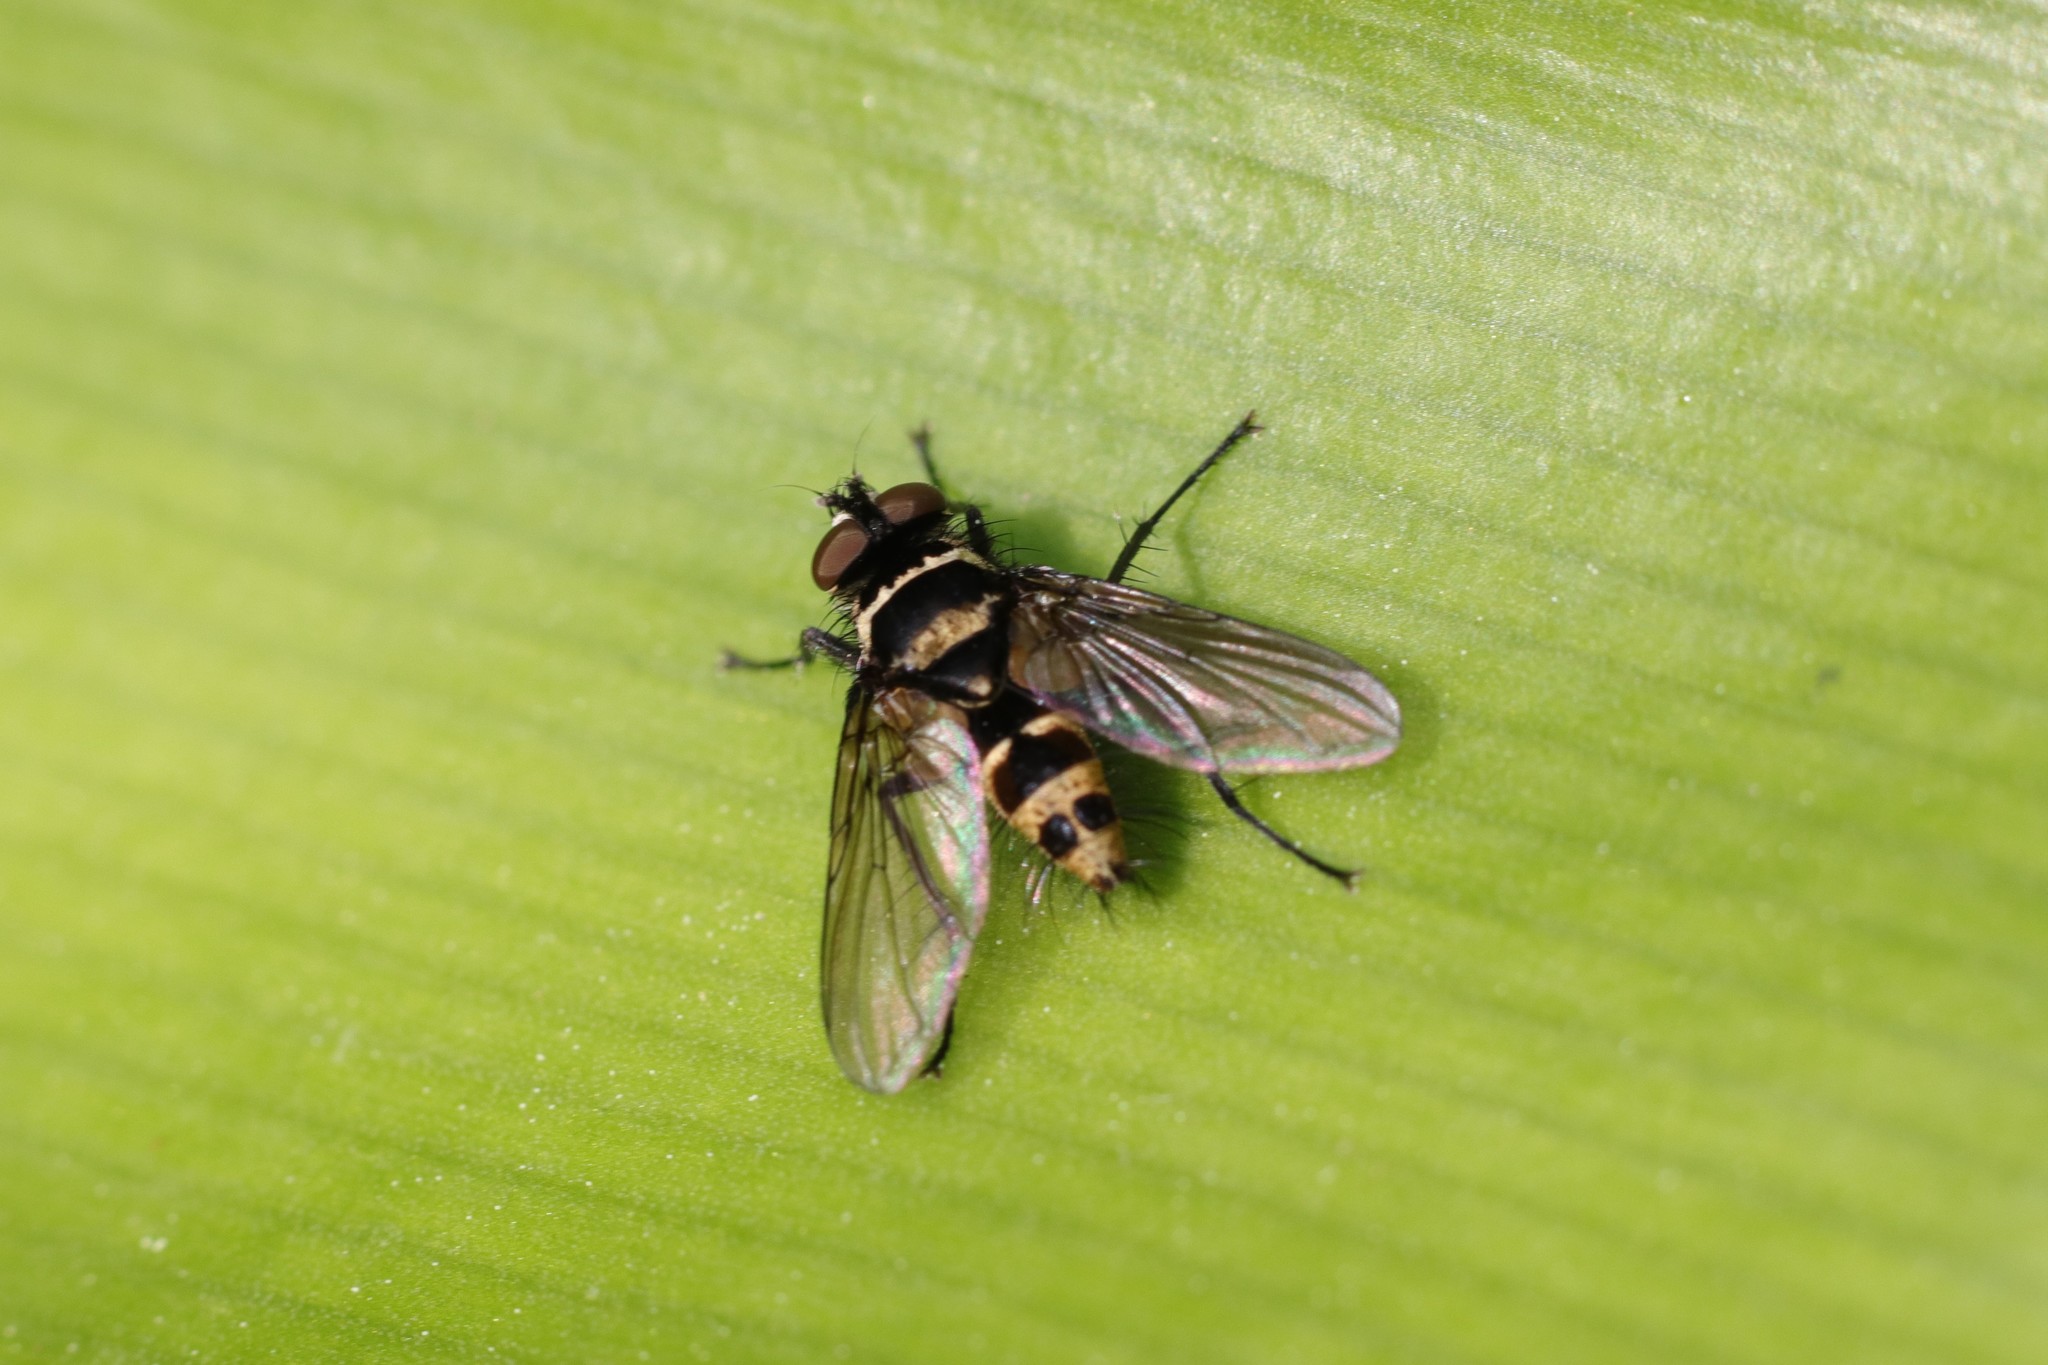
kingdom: Animalia
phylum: Arthropoda
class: Insecta
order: Diptera
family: Tachinidae
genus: Trigonospila
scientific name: Trigonospila brevifacies
